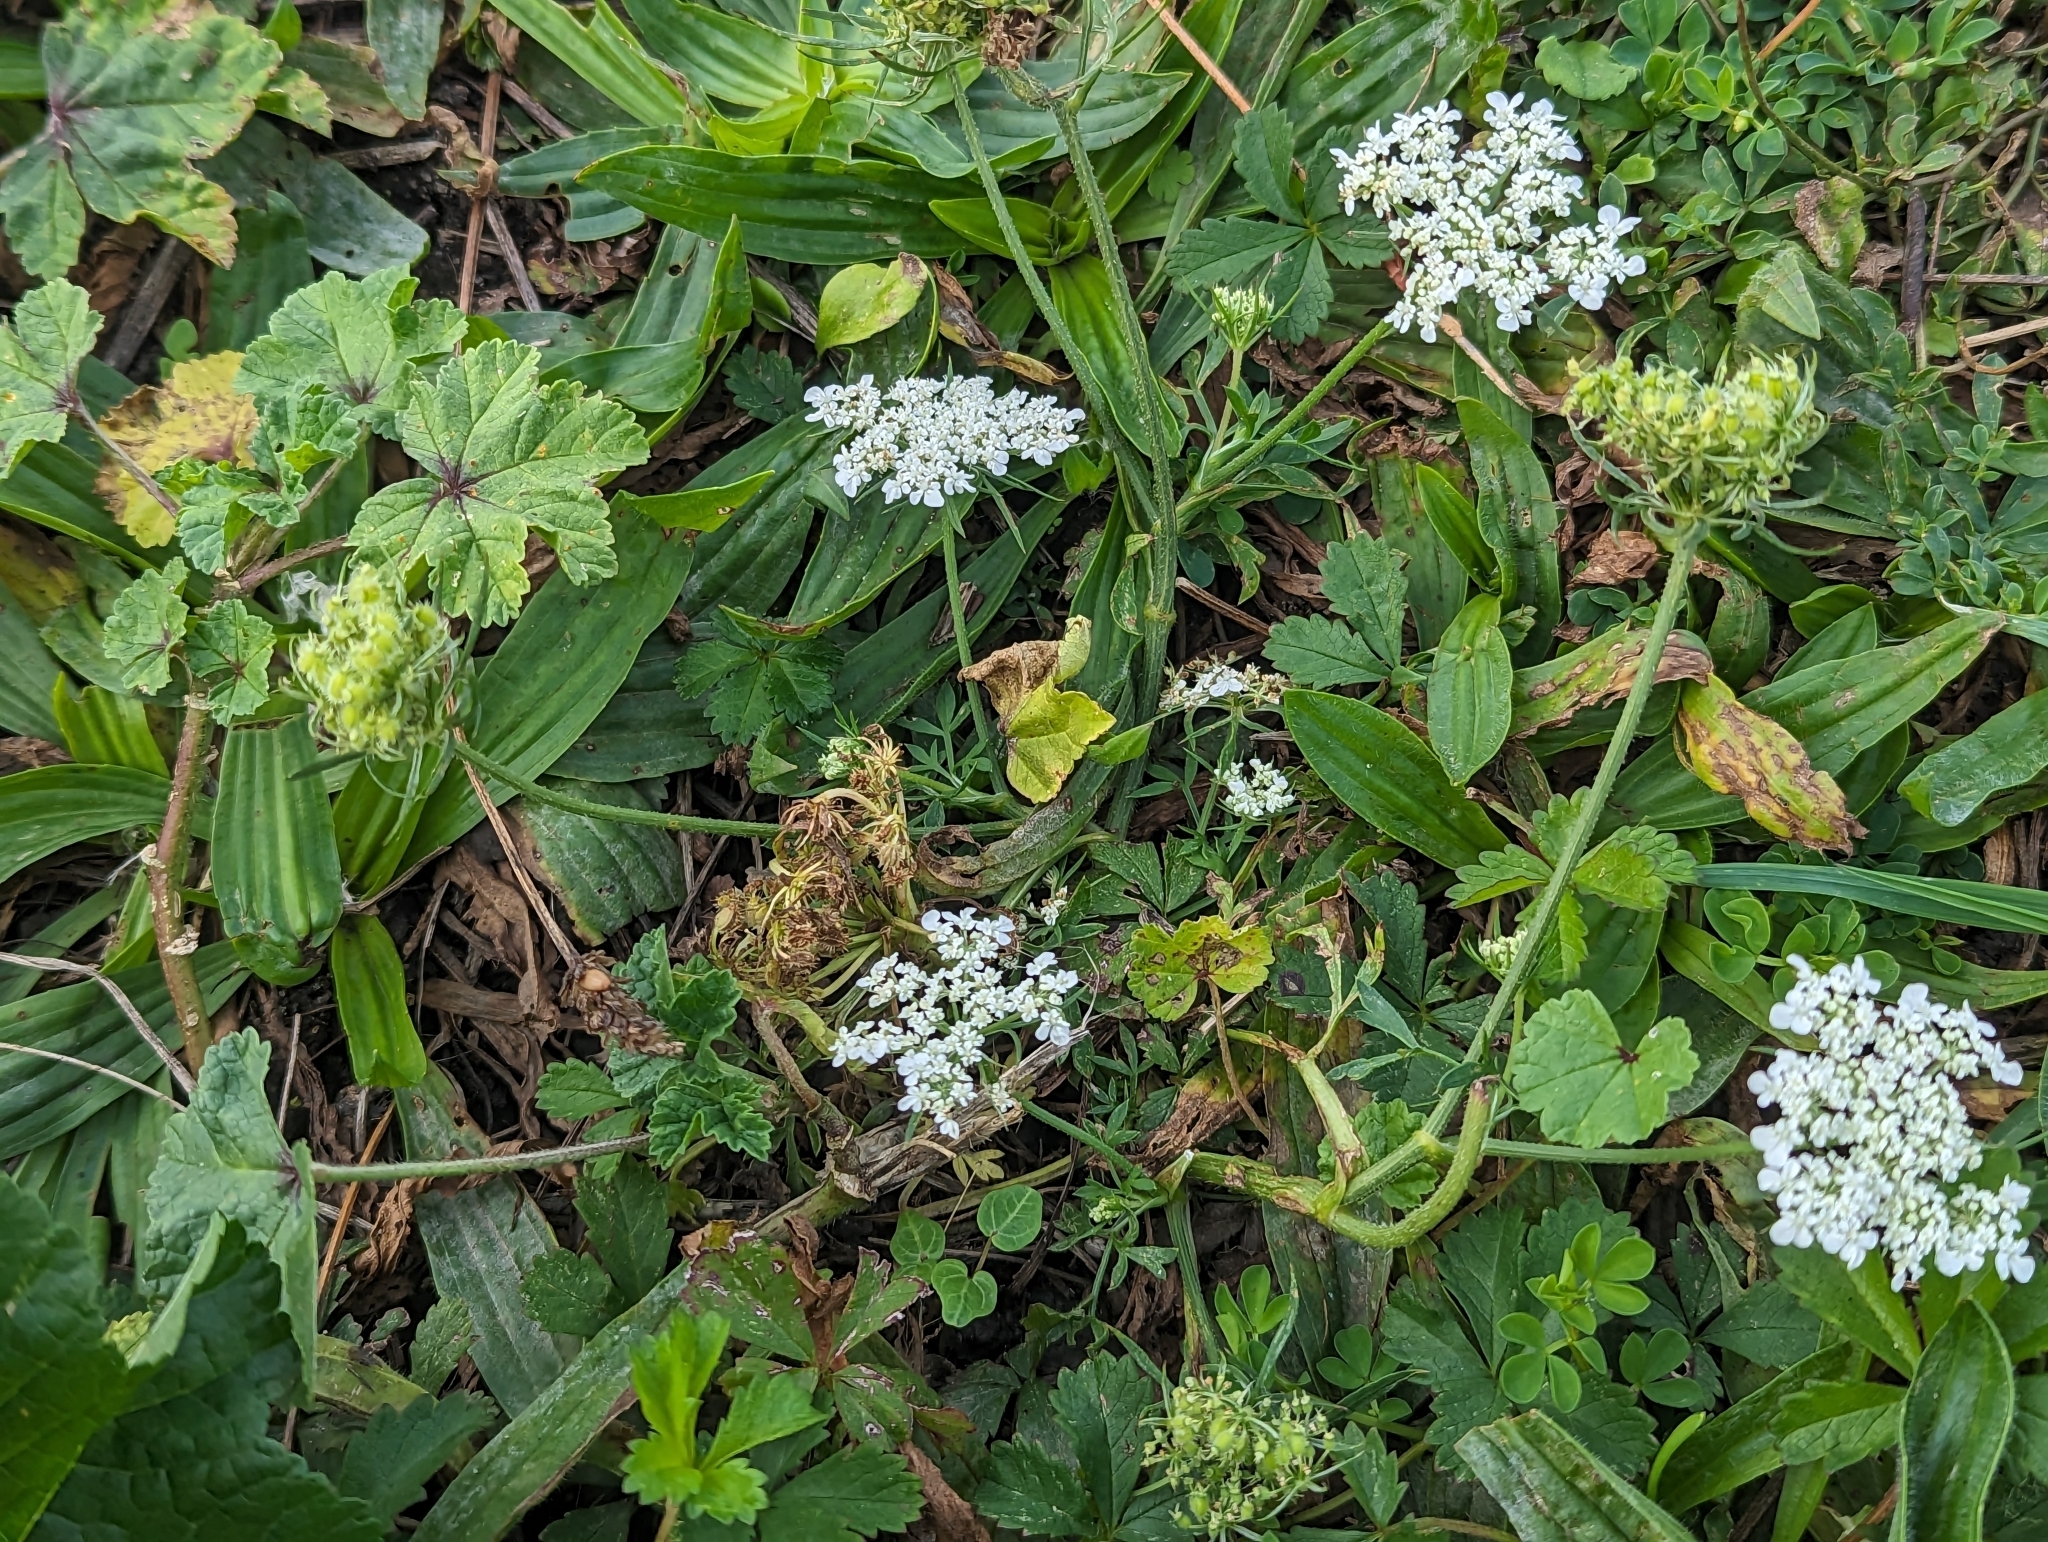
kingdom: Plantae
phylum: Tracheophyta
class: Magnoliopsida
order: Apiales
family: Apiaceae
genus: Daucus
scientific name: Daucus carota
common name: Wild carrot
